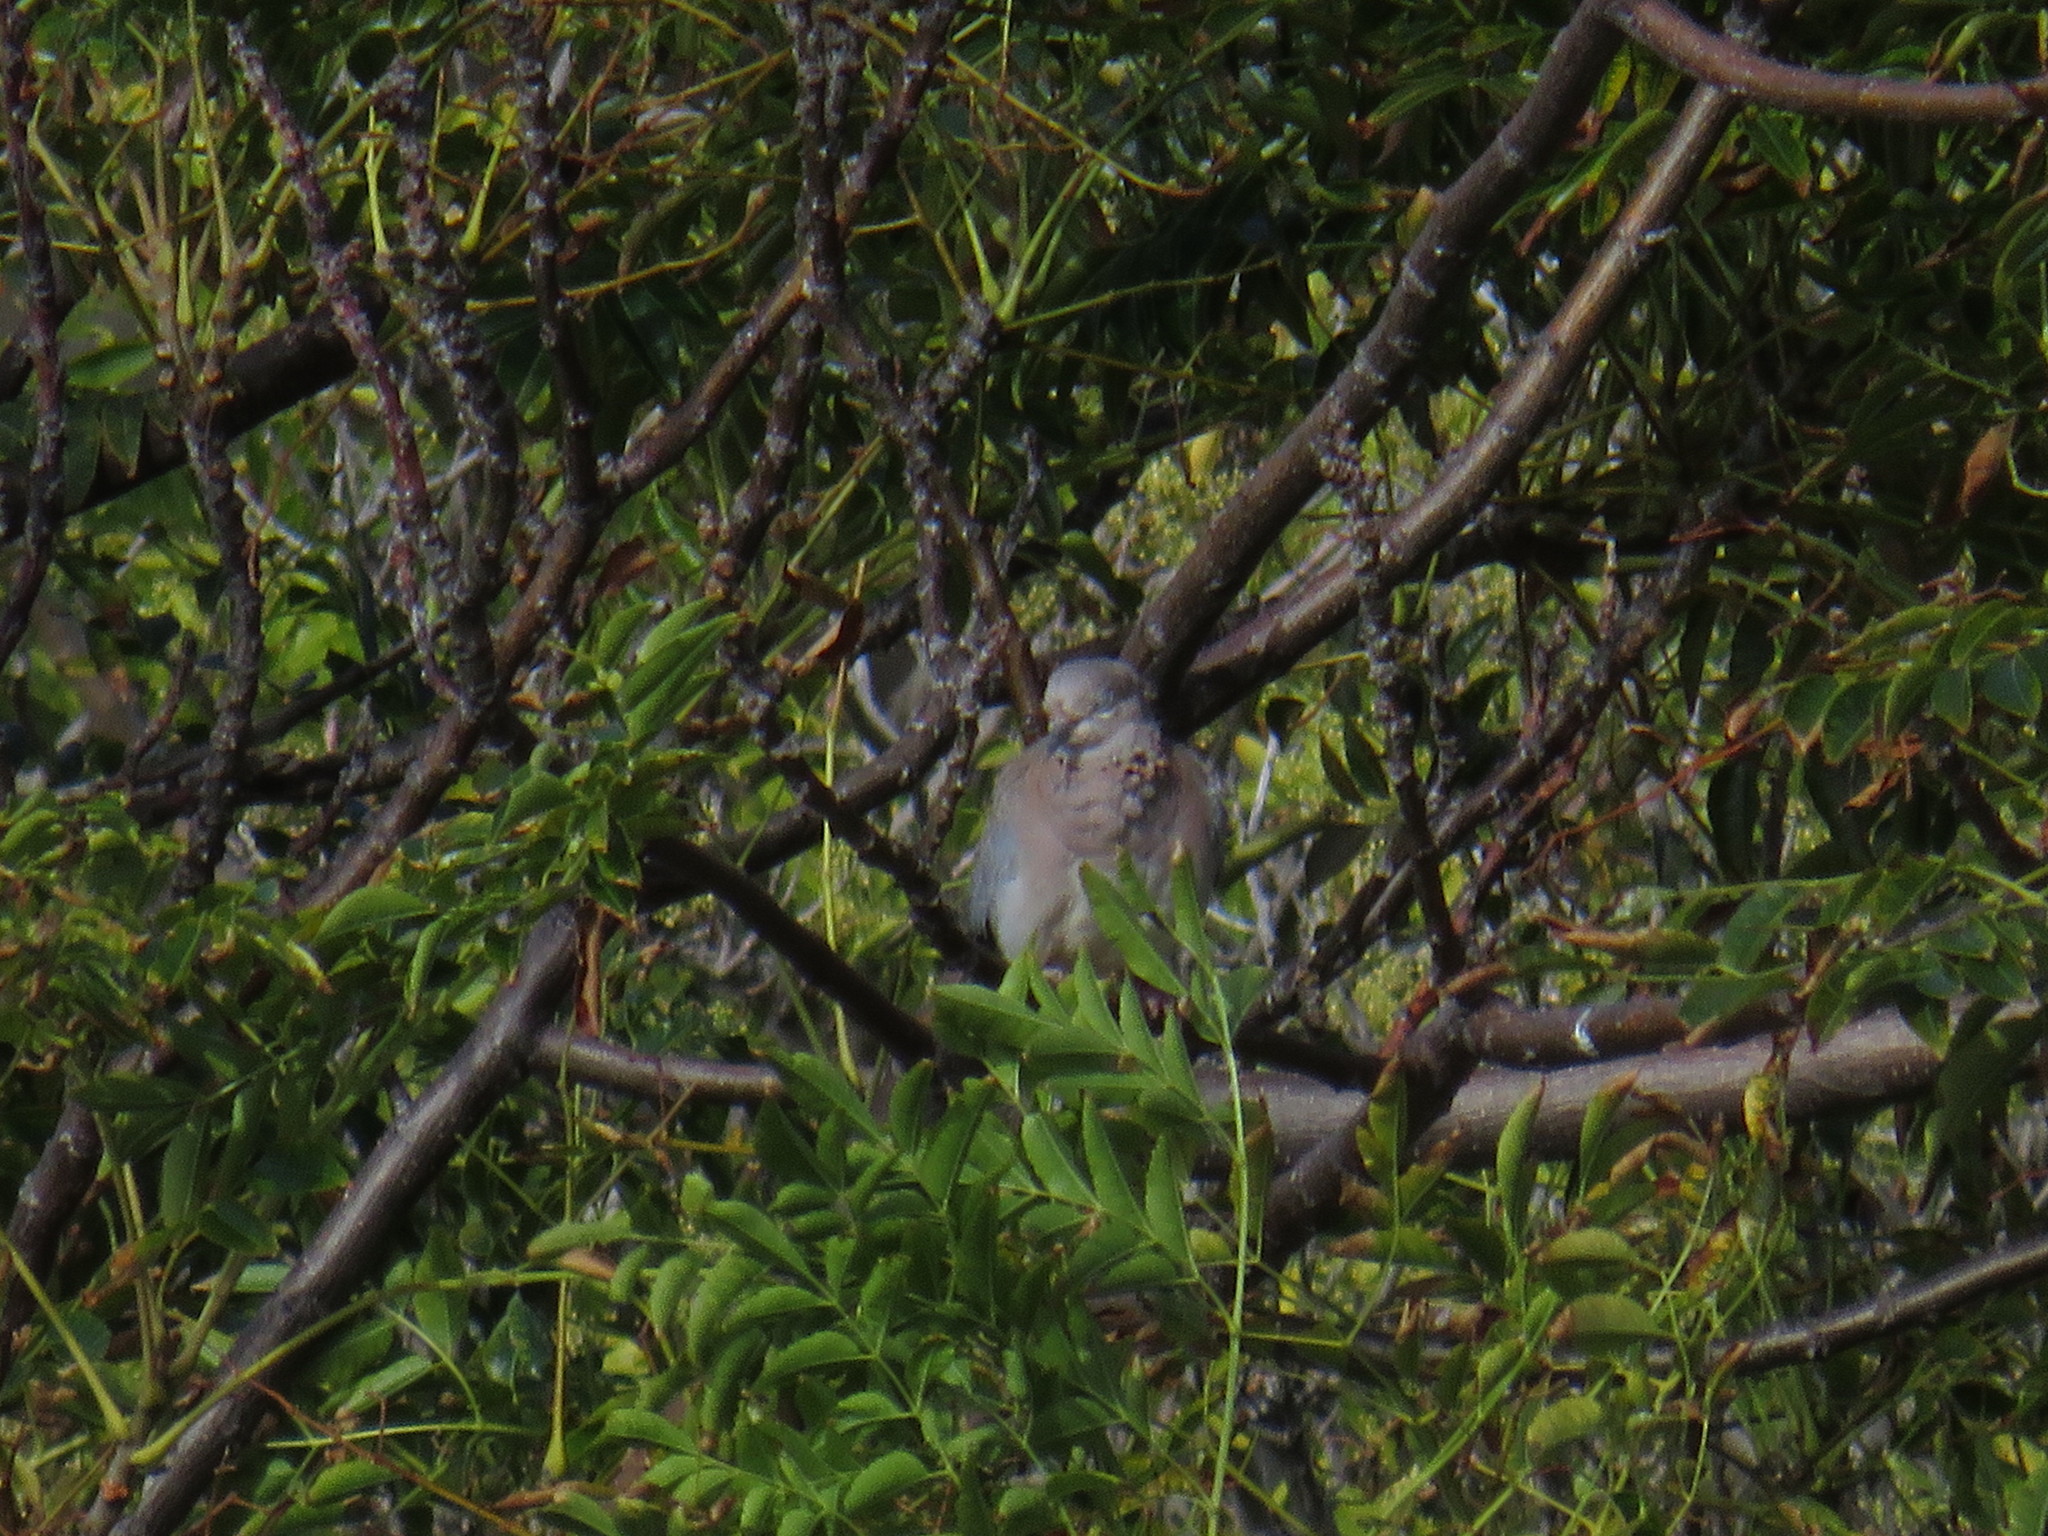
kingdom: Animalia
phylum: Chordata
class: Aves
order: Columbiformes
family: Columbidae
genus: Spilopelia
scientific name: Spilopelia senegalensis
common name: Laughing dove
